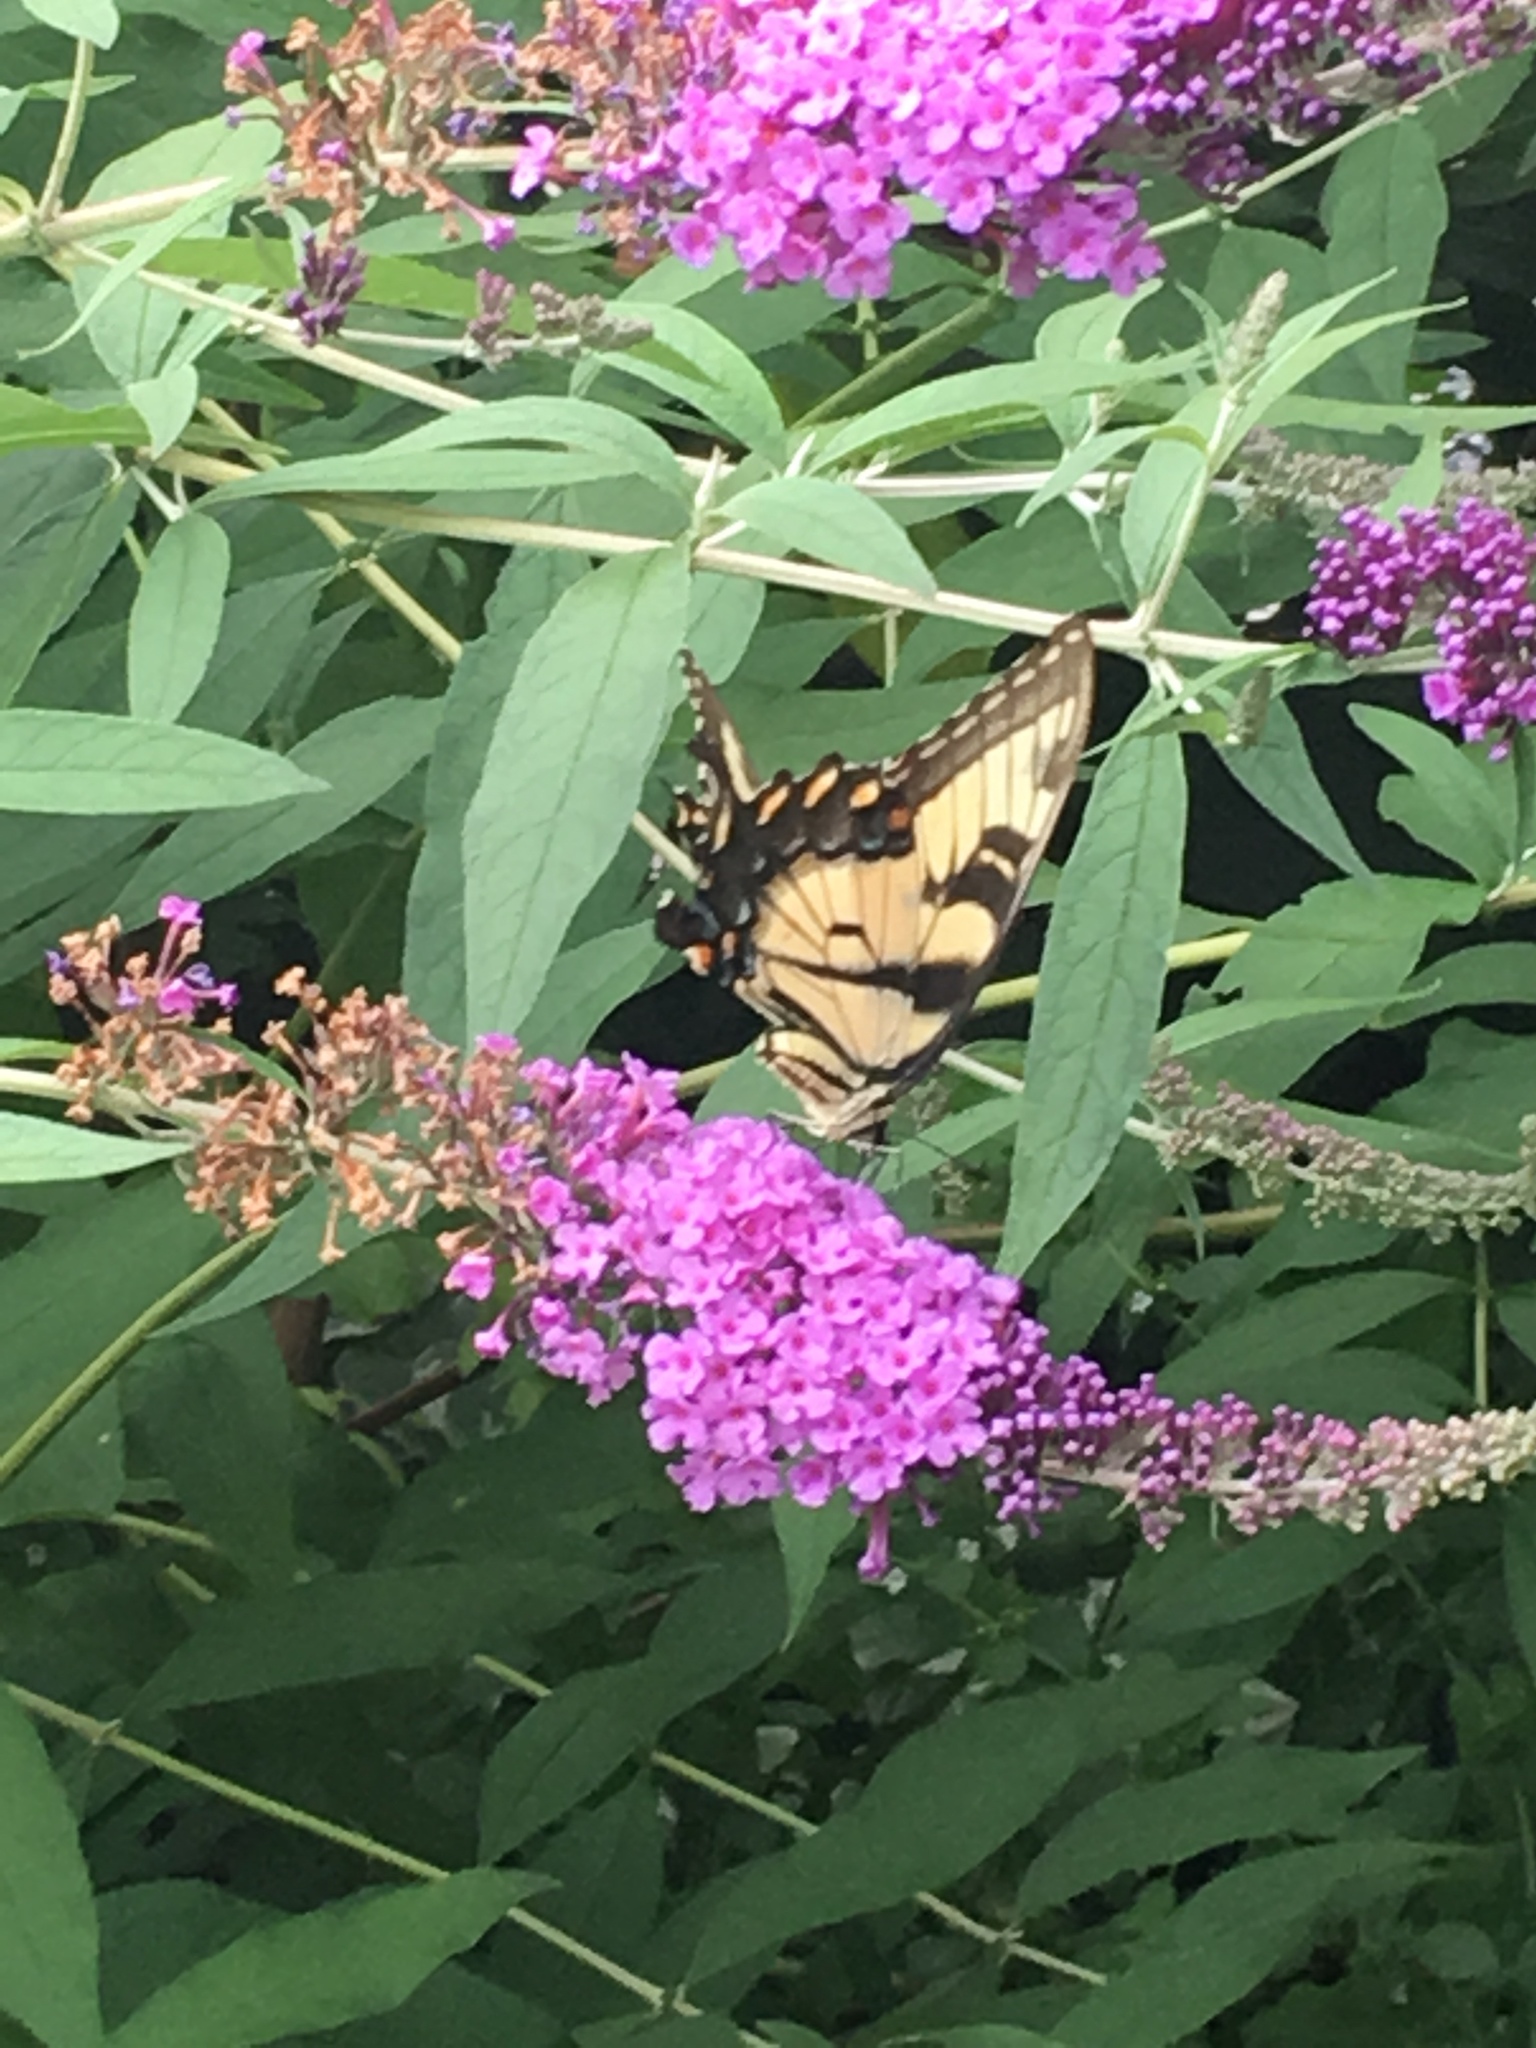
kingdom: Animalia
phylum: Arthropoda
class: Insecta
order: Lepidoptera
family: Papilionidae
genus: Papilio
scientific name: Papilio glaucus
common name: Tiger swallowtail
